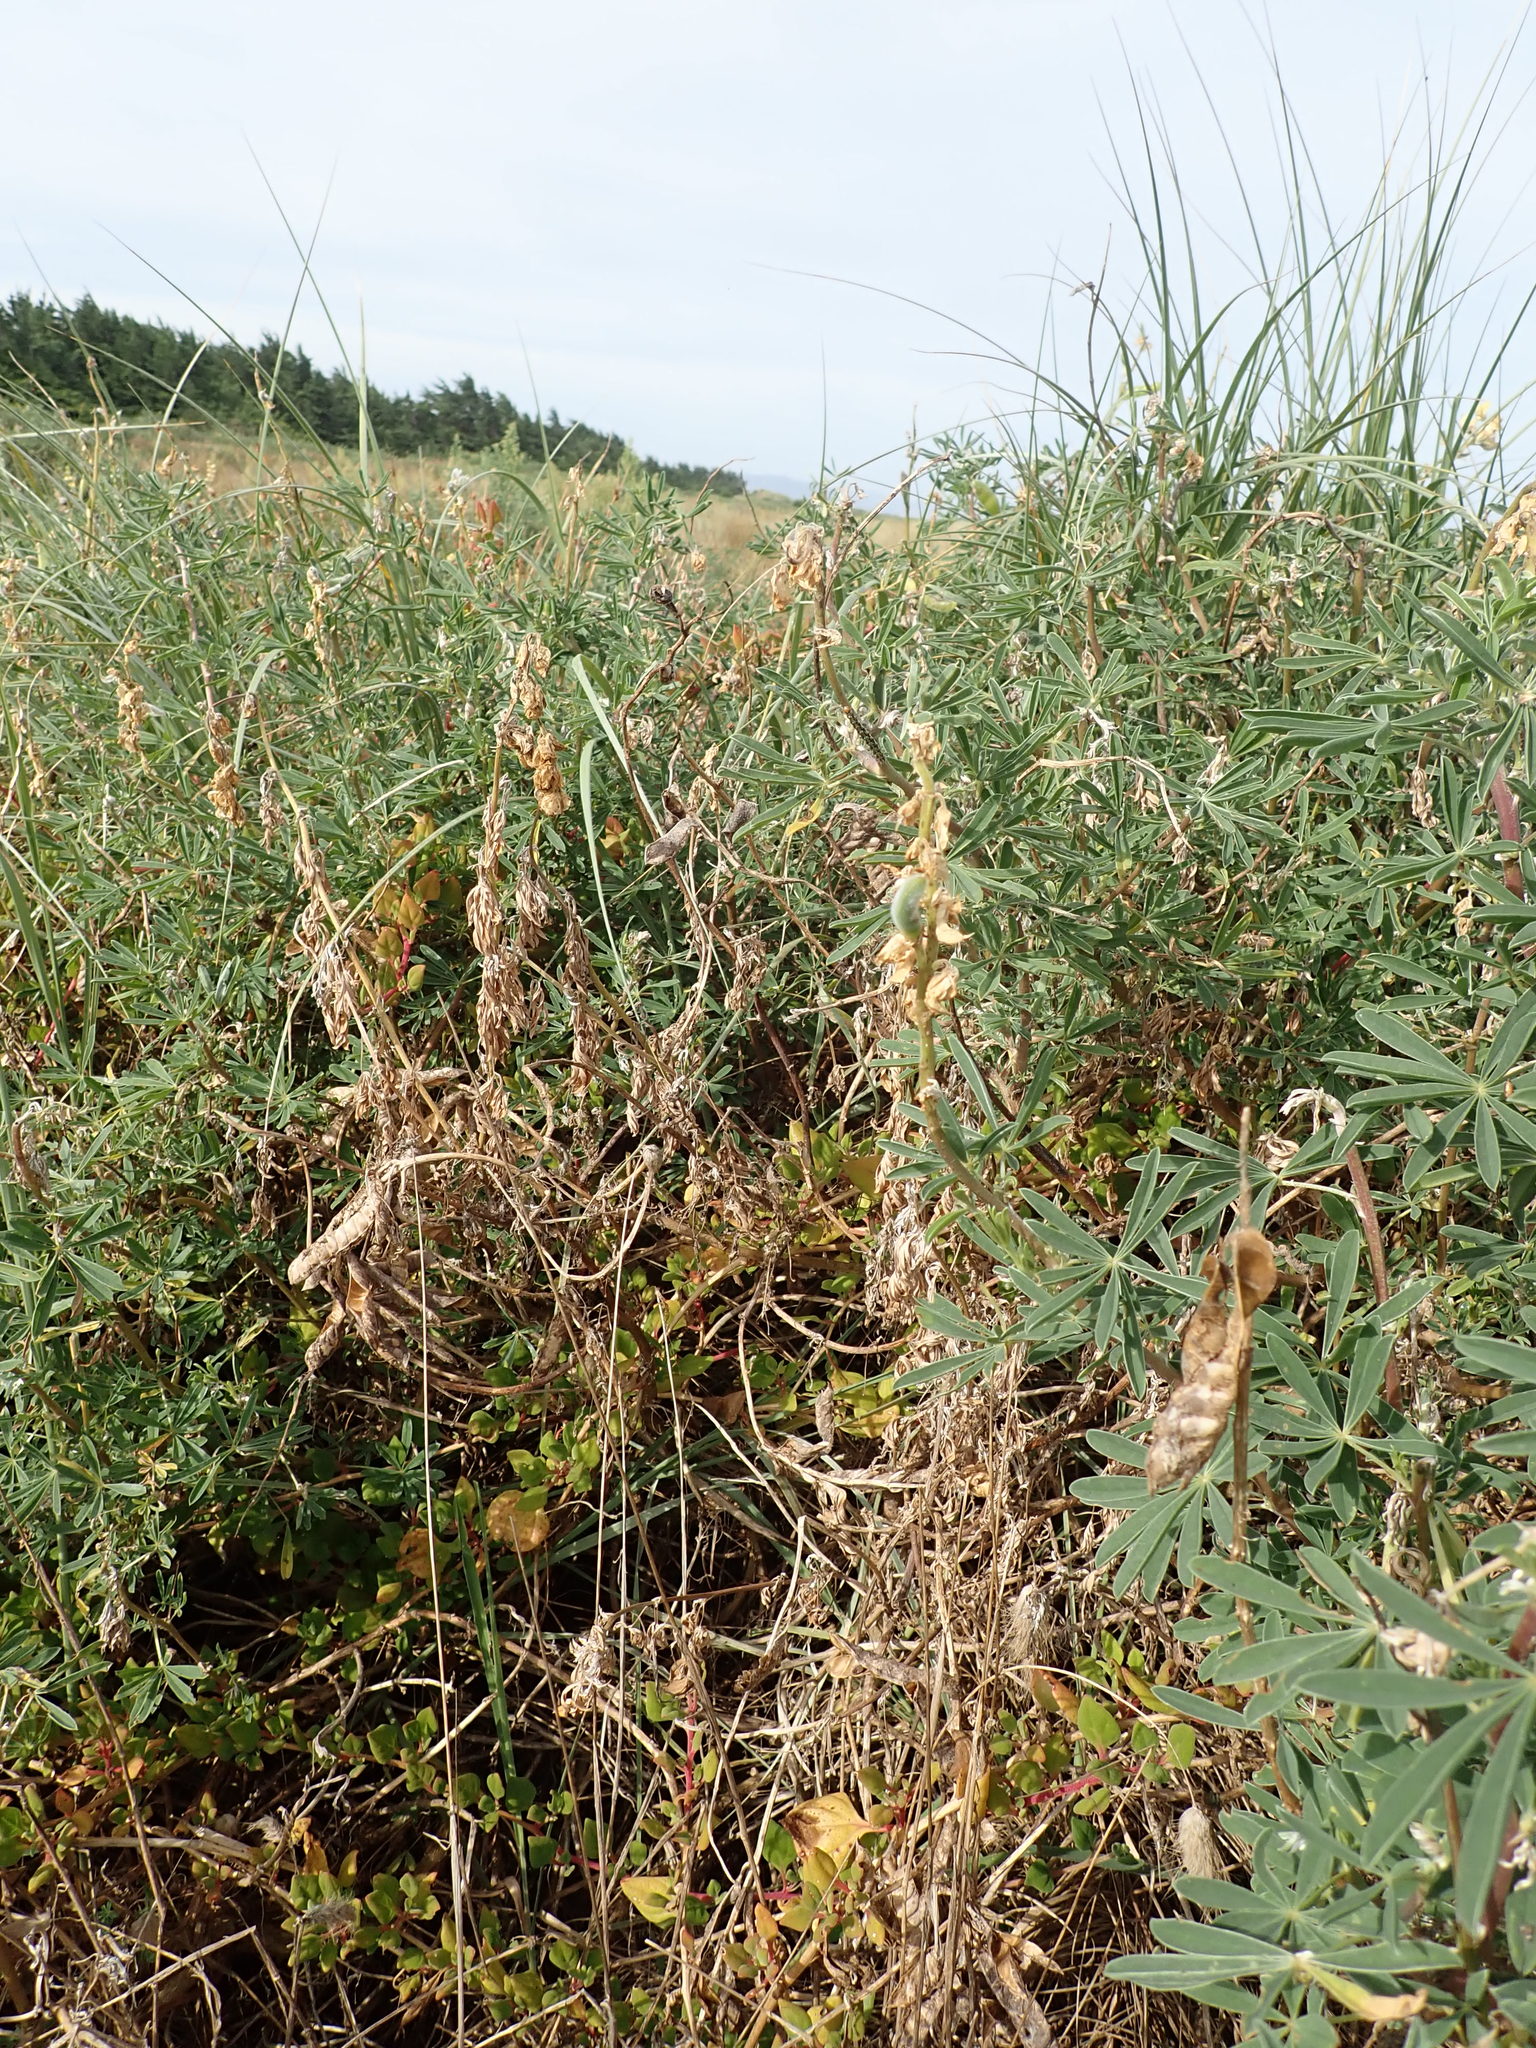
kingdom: Plantae
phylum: Tracheophyta
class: Magnoliopsida
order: Caryophyllales
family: Aizoaceae
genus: Tetragonia
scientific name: Tetragonia implexicoma
